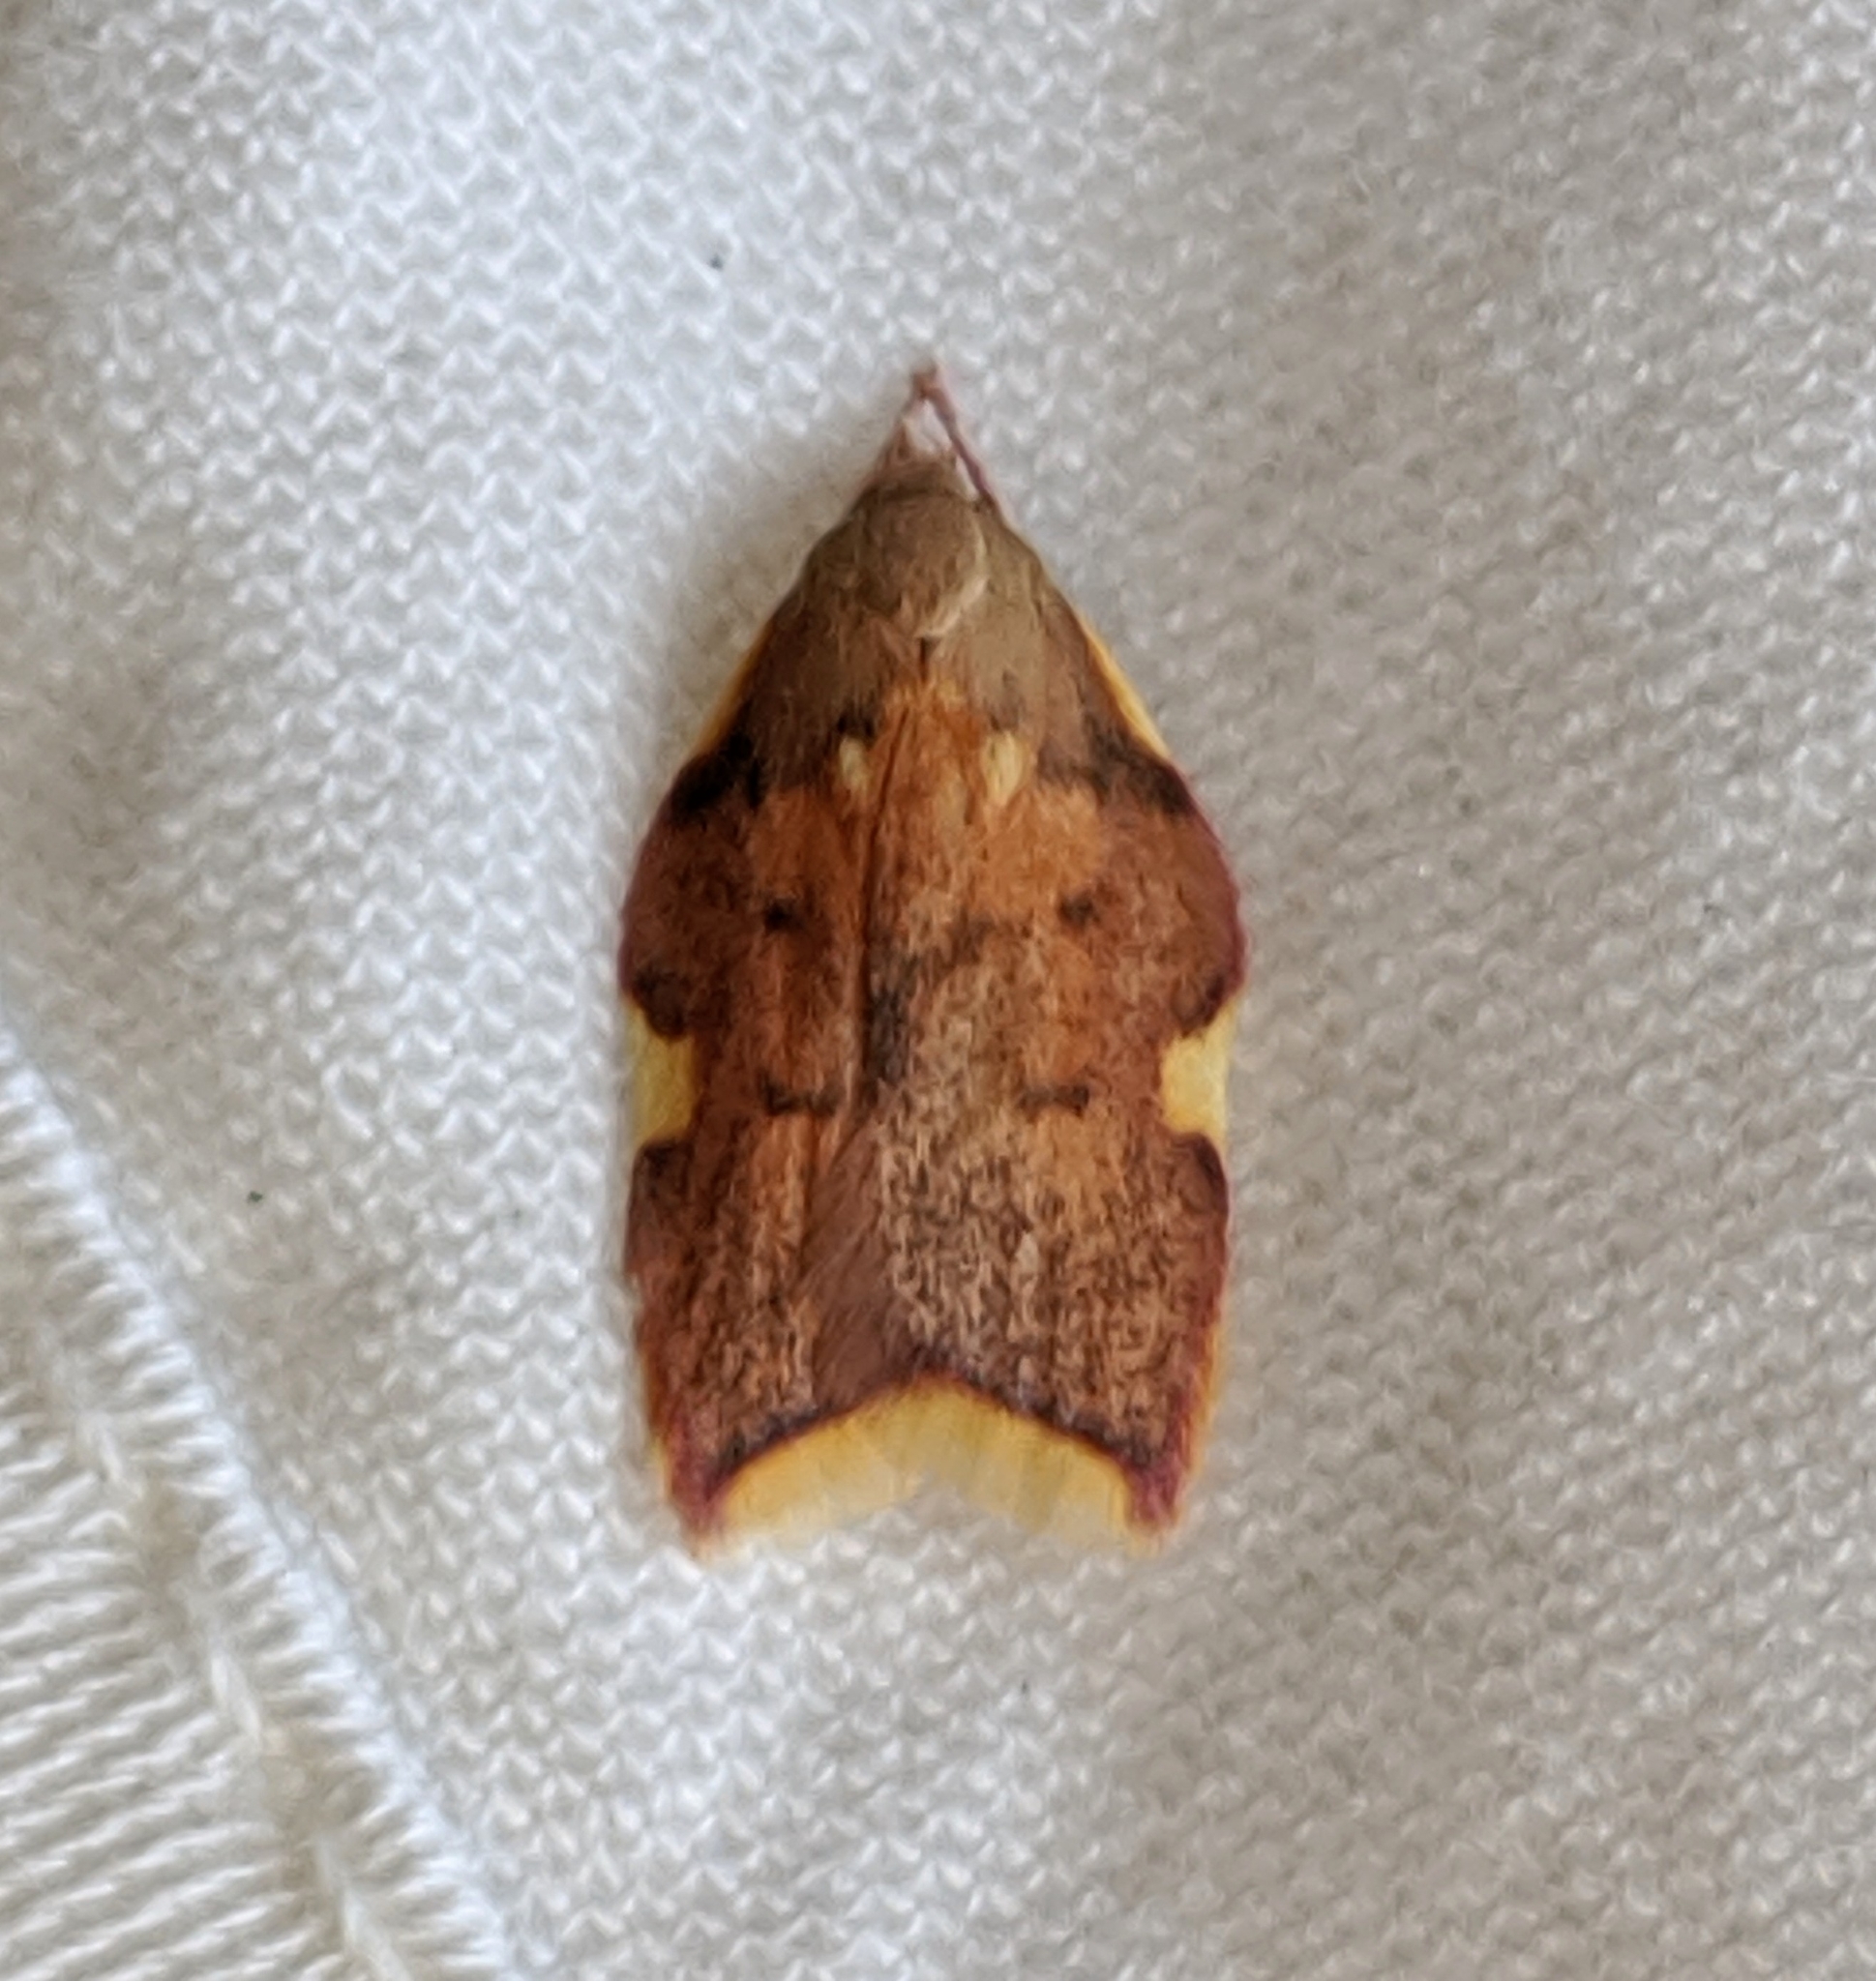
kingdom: Animalia
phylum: Arthropoda
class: Insecta
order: Lepidoptera
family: Peleopodidae
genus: Carcina
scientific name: Carcina quercana
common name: Moth
